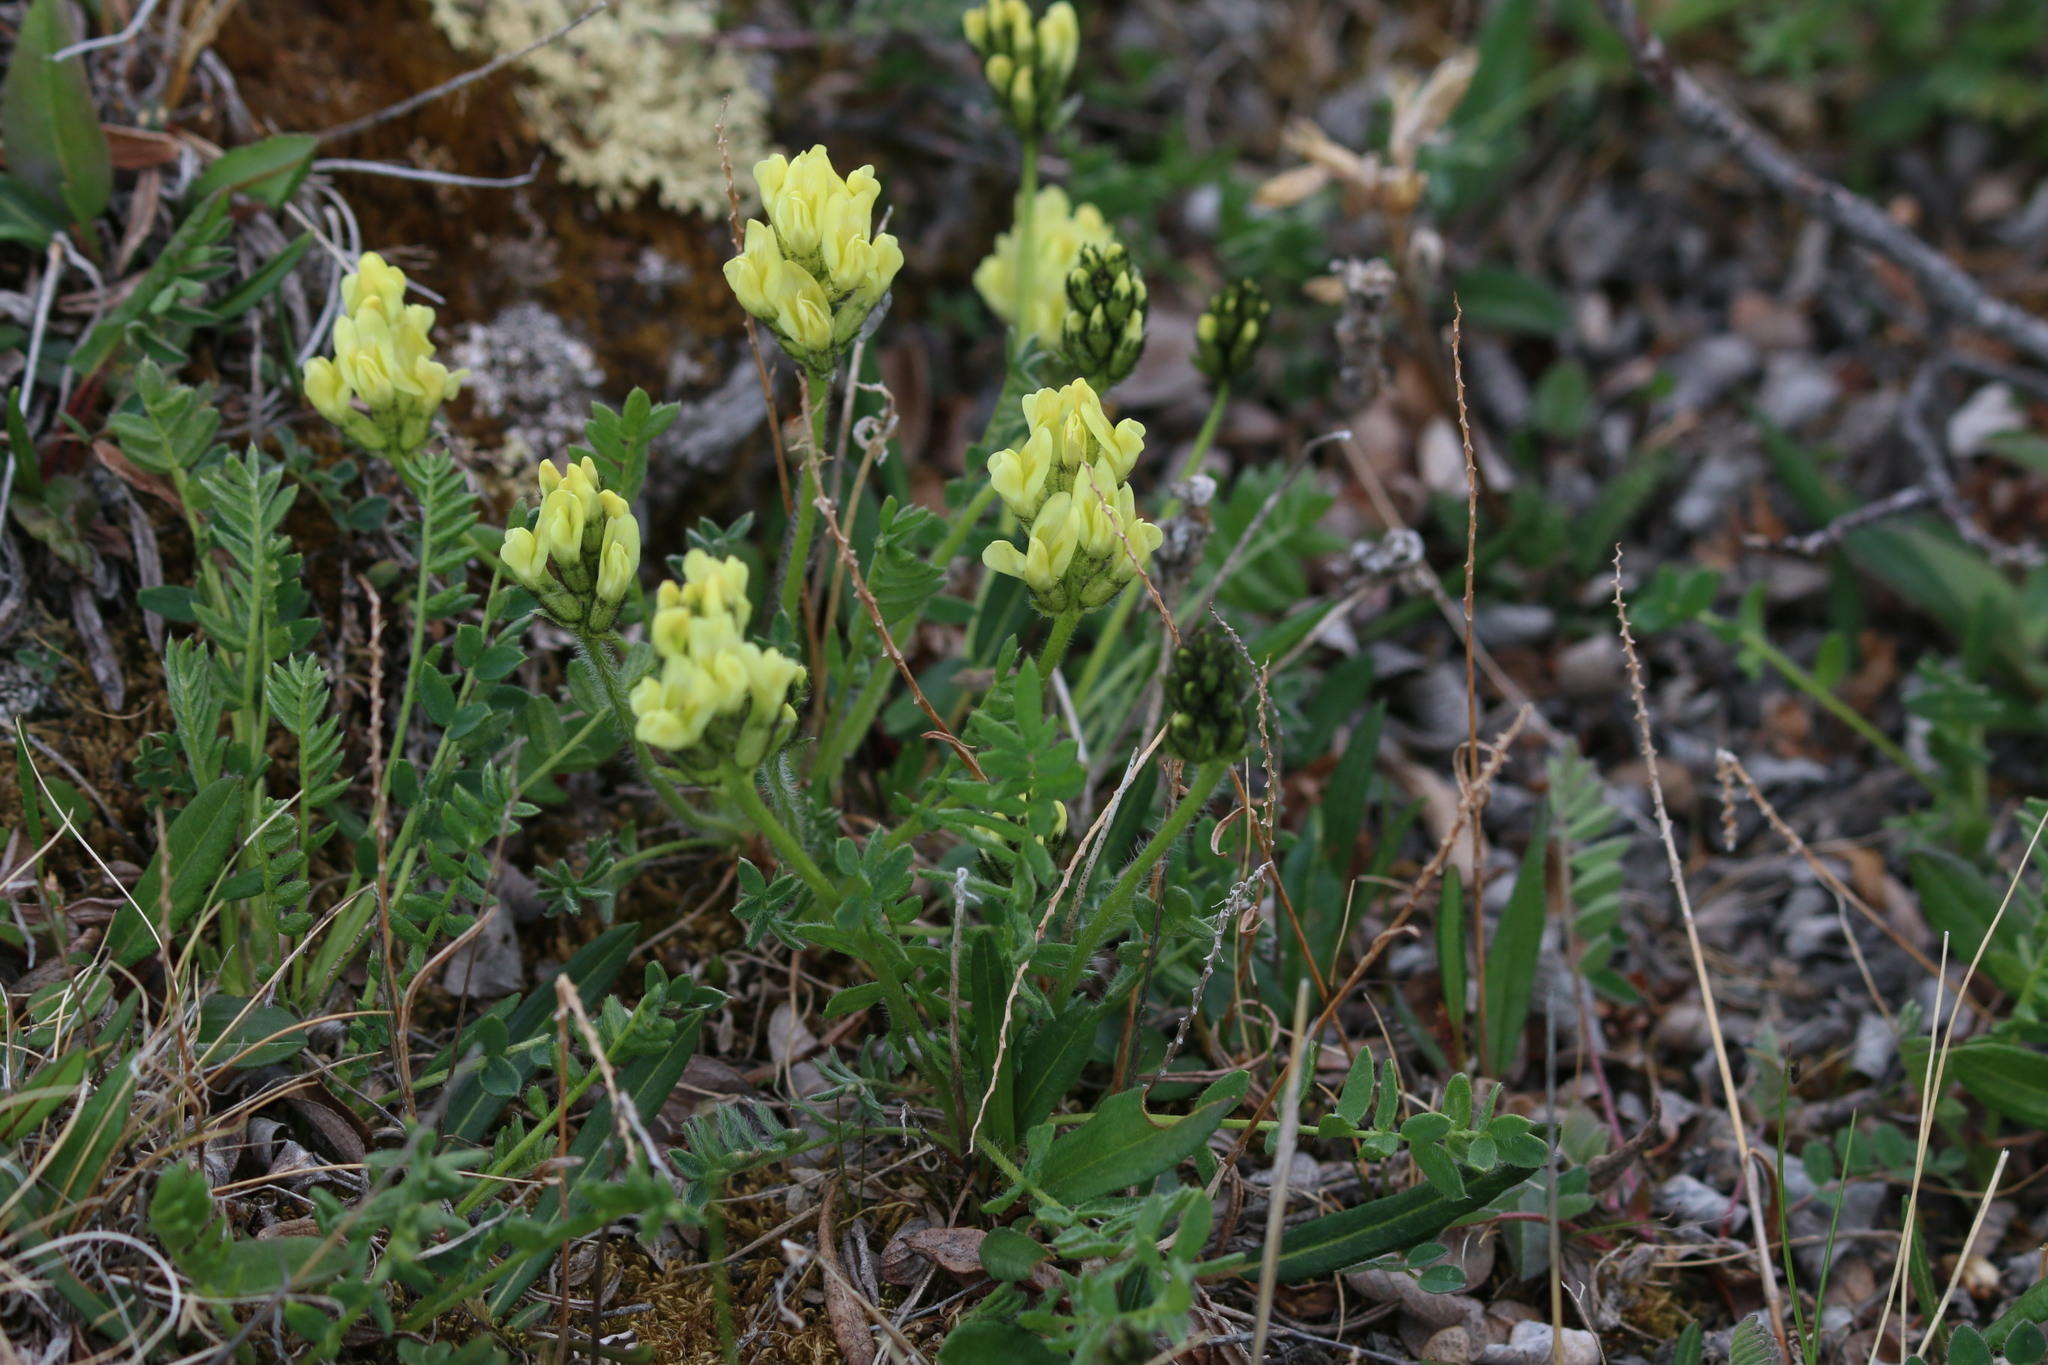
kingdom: Plantae
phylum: Tracheophyta
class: Magnoliopsida
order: Fabales
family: Fabaceae
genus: Oxytropis
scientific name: Oxytropis maydelliana
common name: Maydell's locoweed
